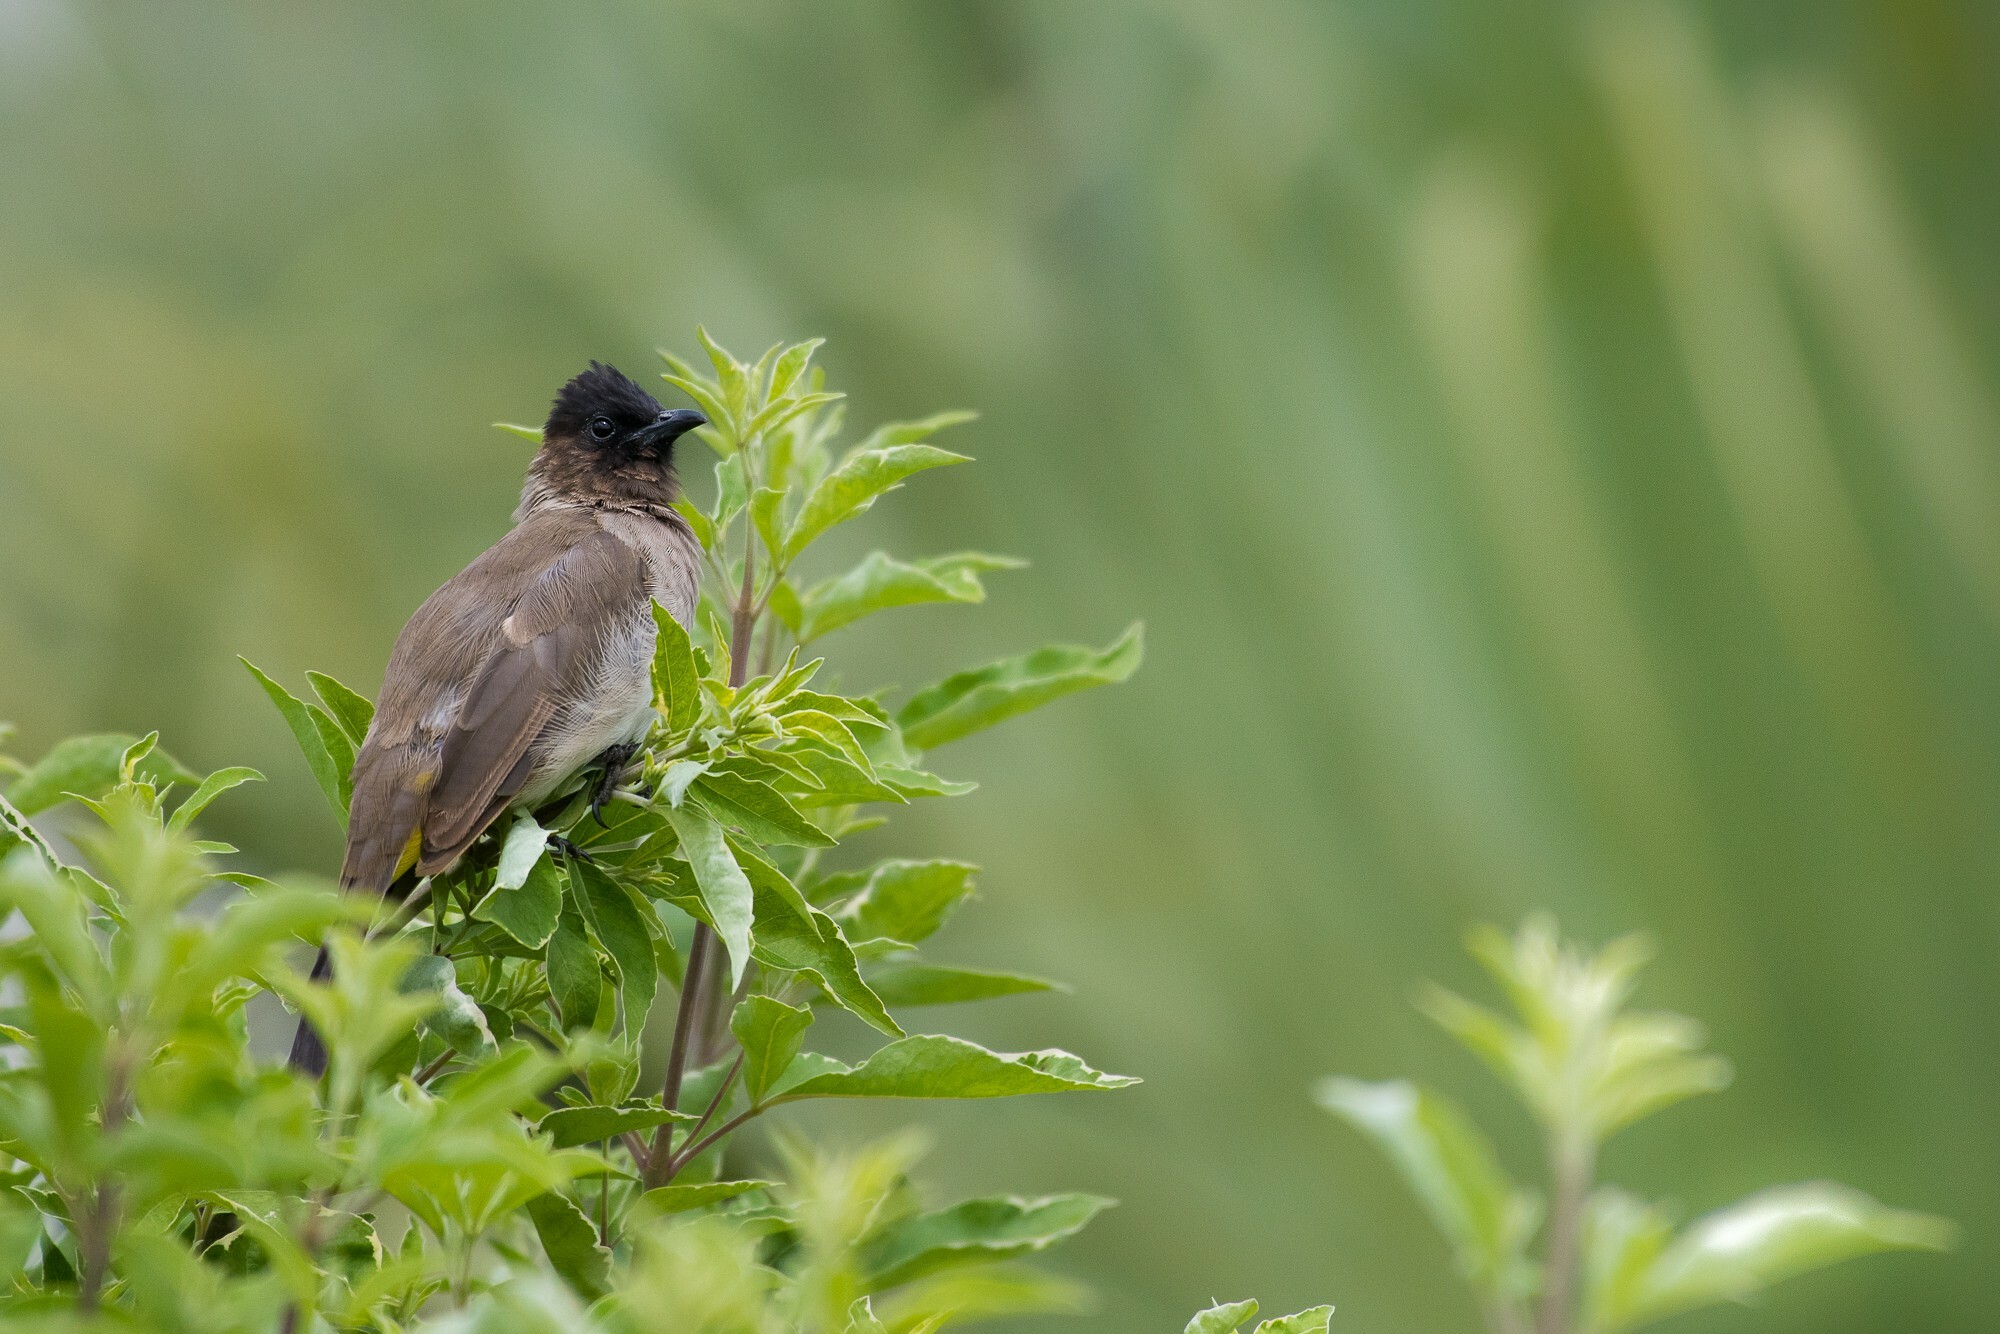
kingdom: Animalia
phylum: Chordata
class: Aves
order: Passeriformes
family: Pycnonotidae
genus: Pycnonotus
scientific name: Pycnonotus barbatus
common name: Common bulbul
